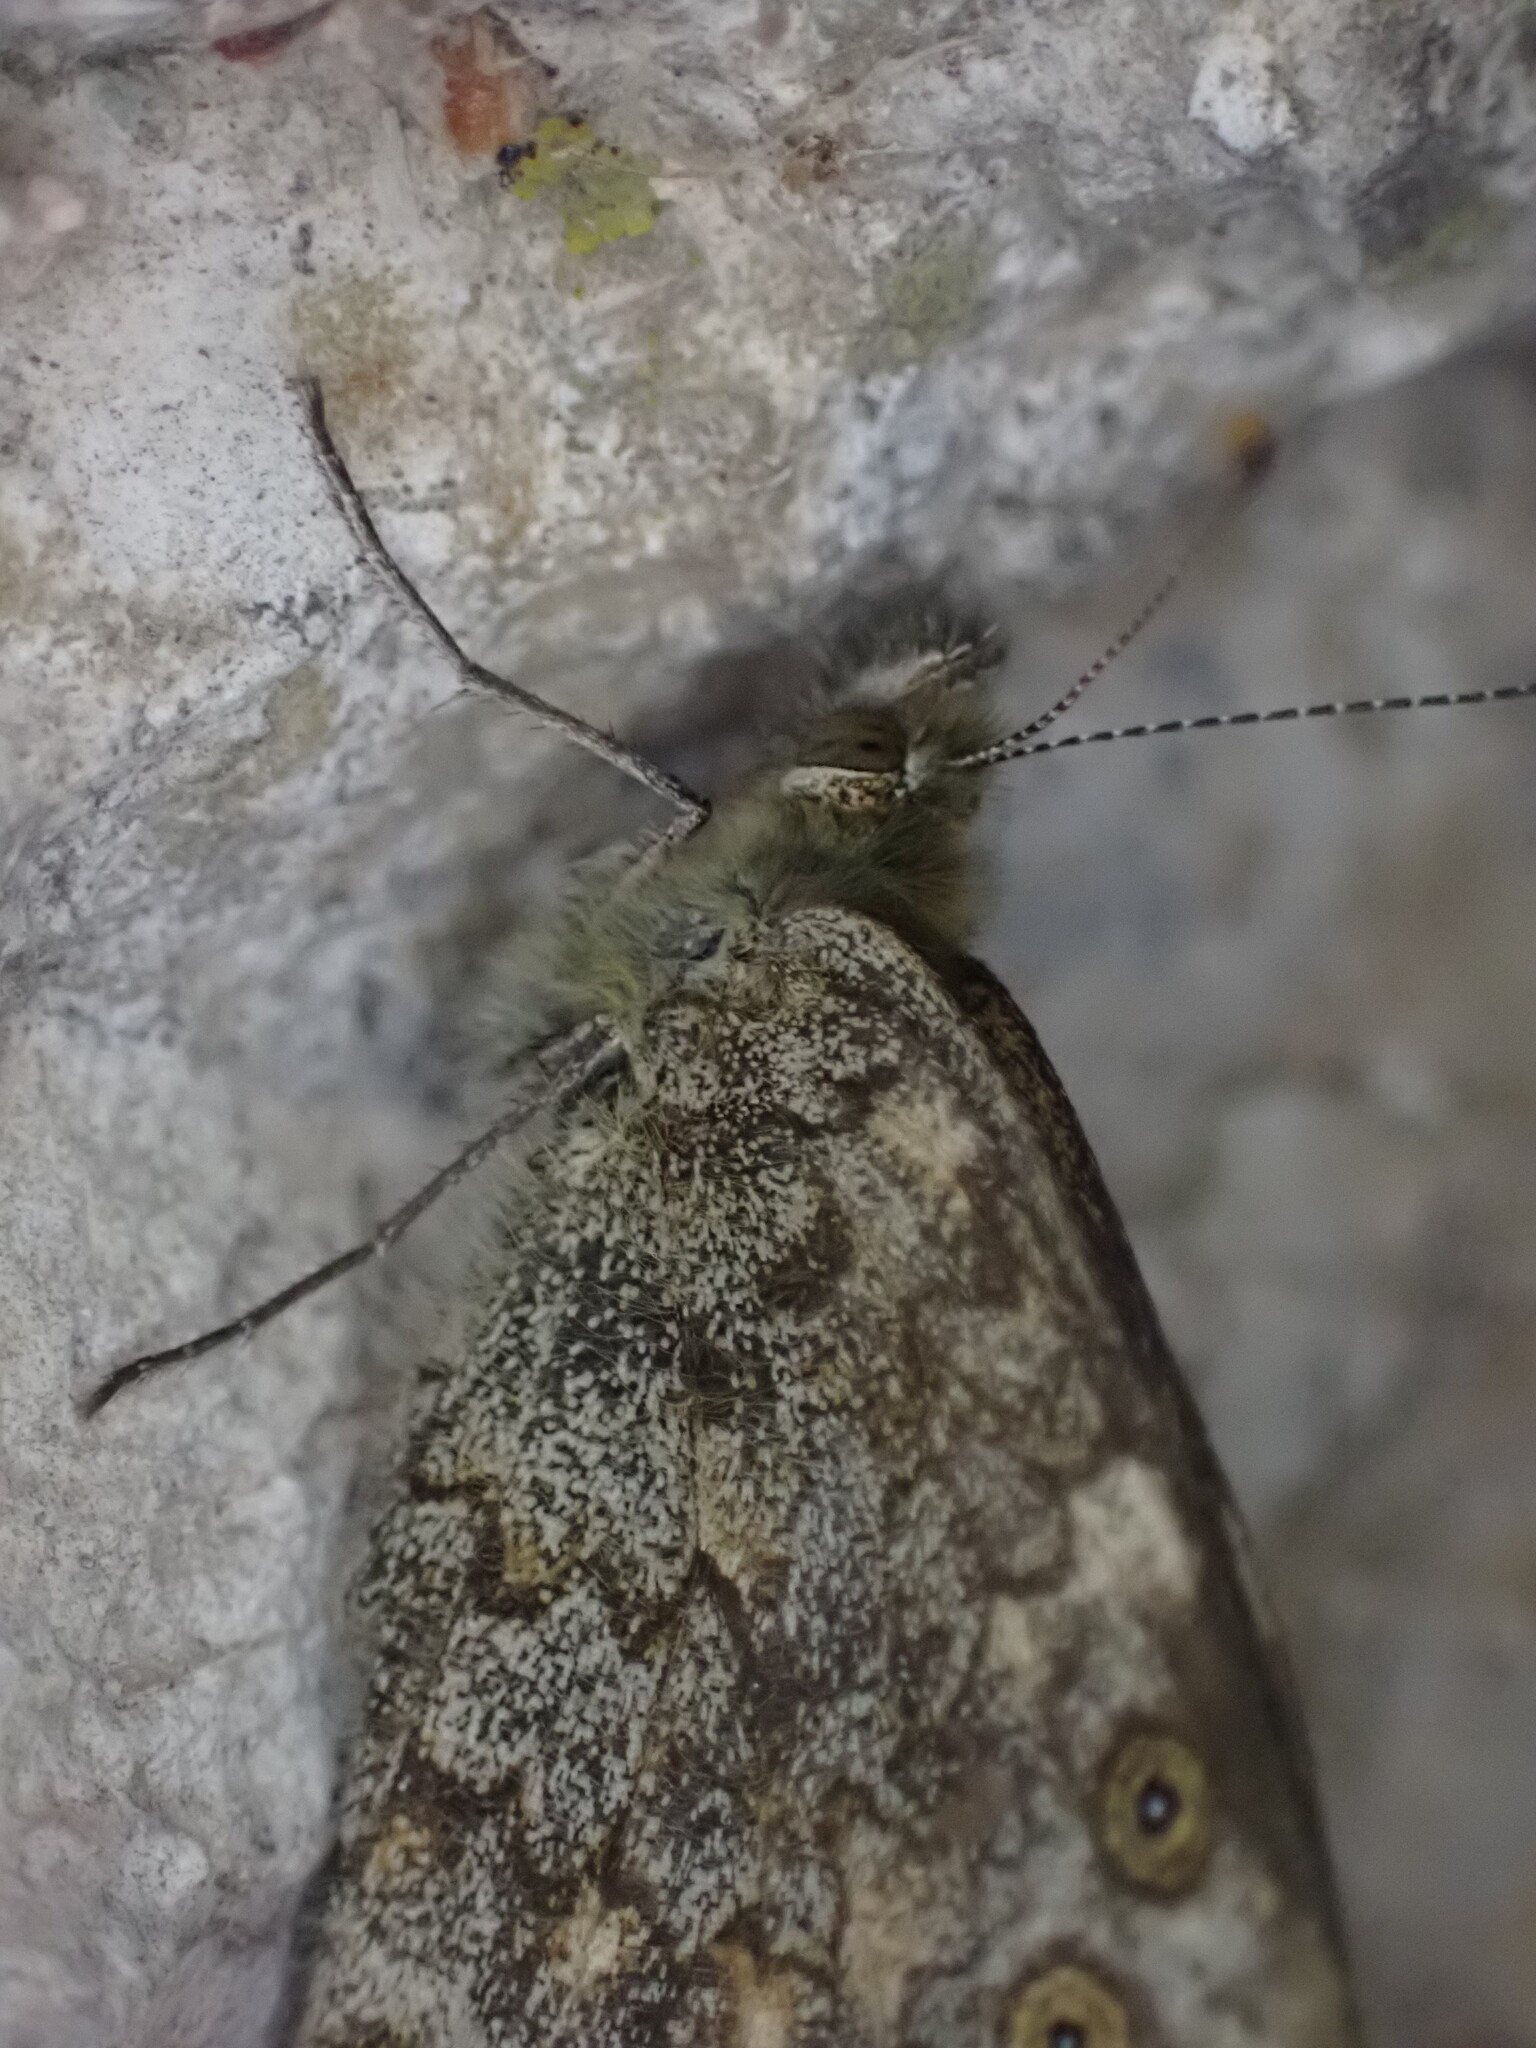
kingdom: Animalia
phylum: Arthropoda
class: Insecta
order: Lepidoptera
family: Nymphalidae
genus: Pararge
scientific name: Pararge Lasiommata megera
